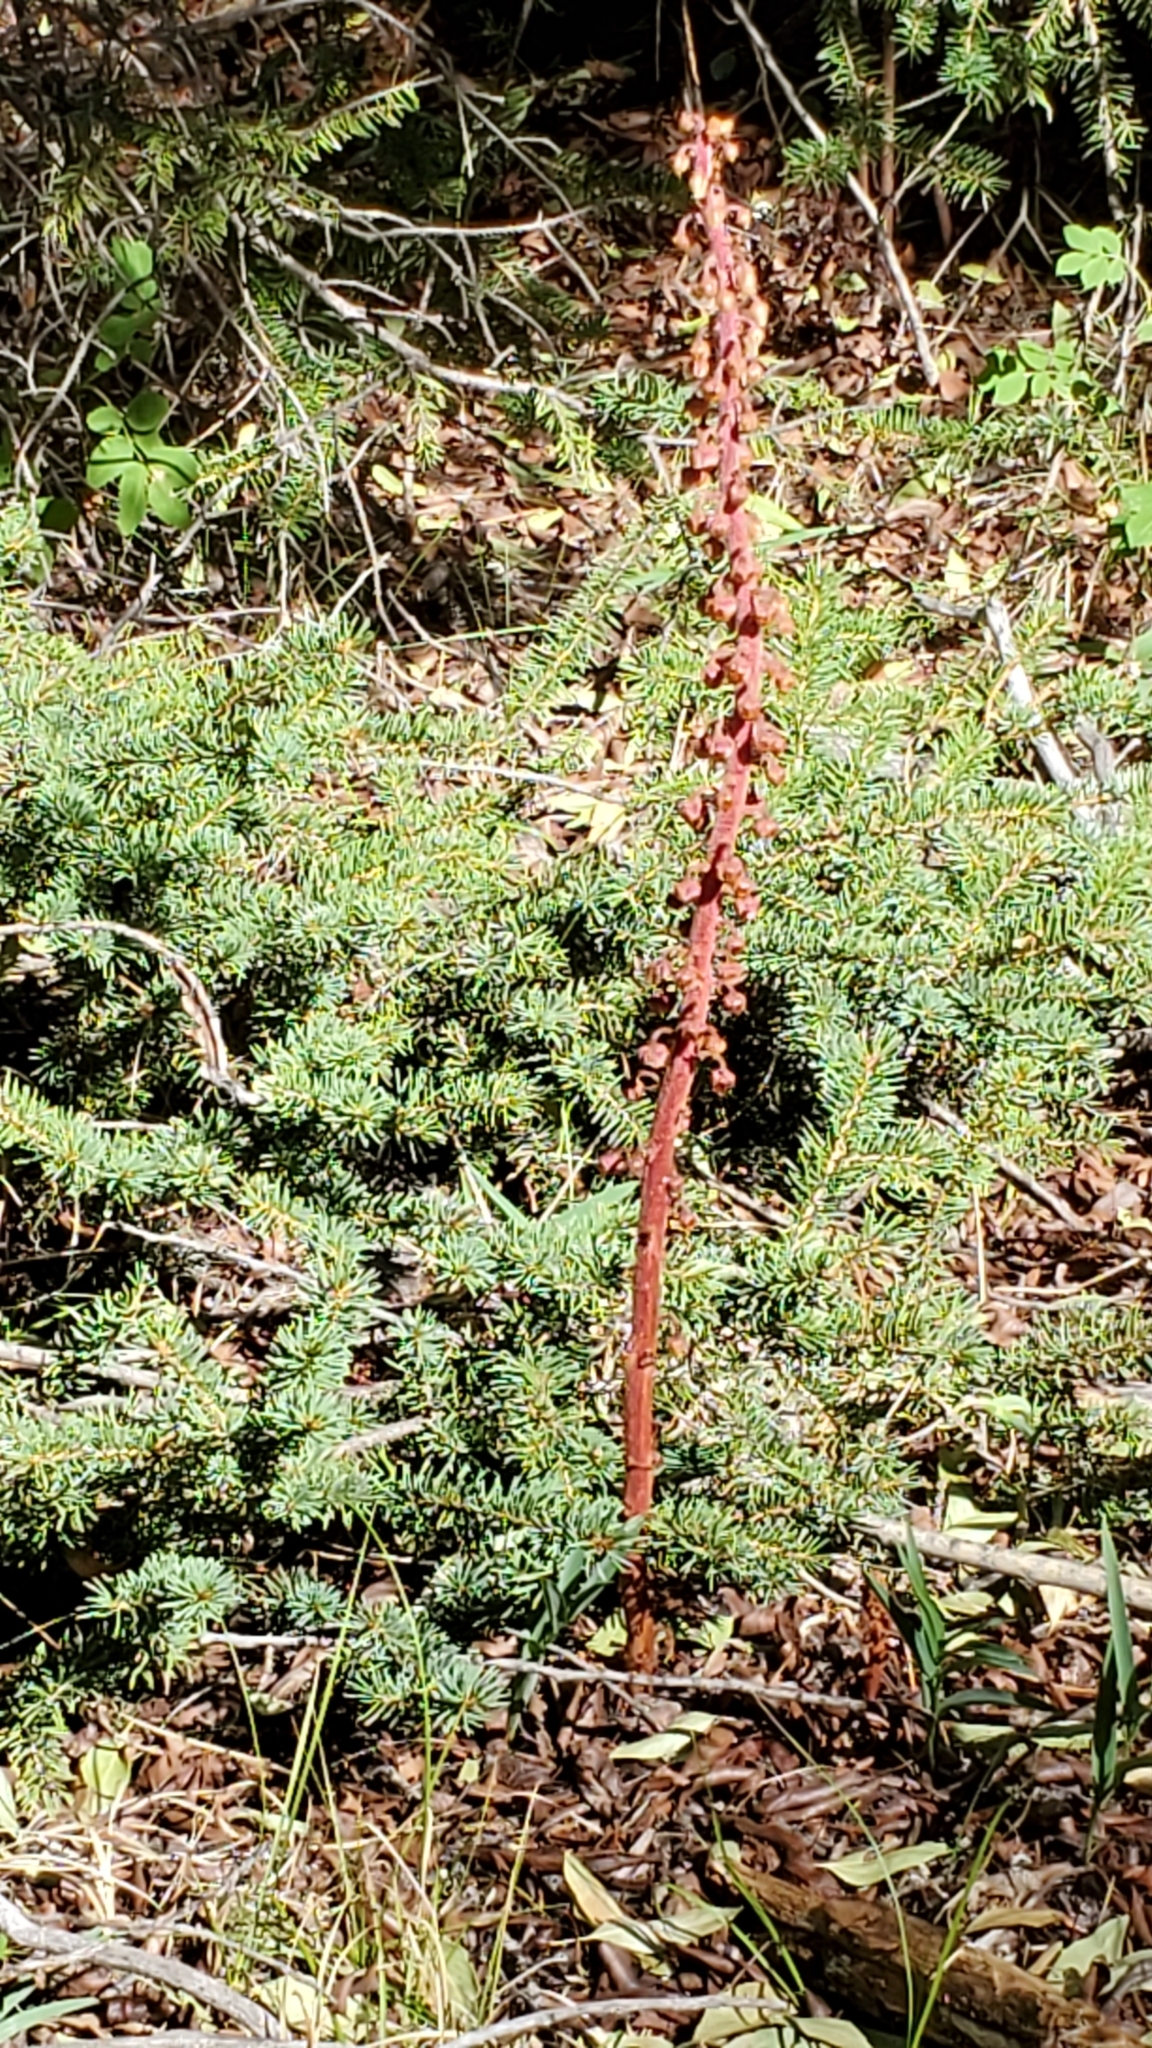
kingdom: Plantae
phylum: Tracheophyta
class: Magnoliopsida
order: Ericales
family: Ericaceae
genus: Pterospora
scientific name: Pterospora andromedea
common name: Giant bird's-nest
